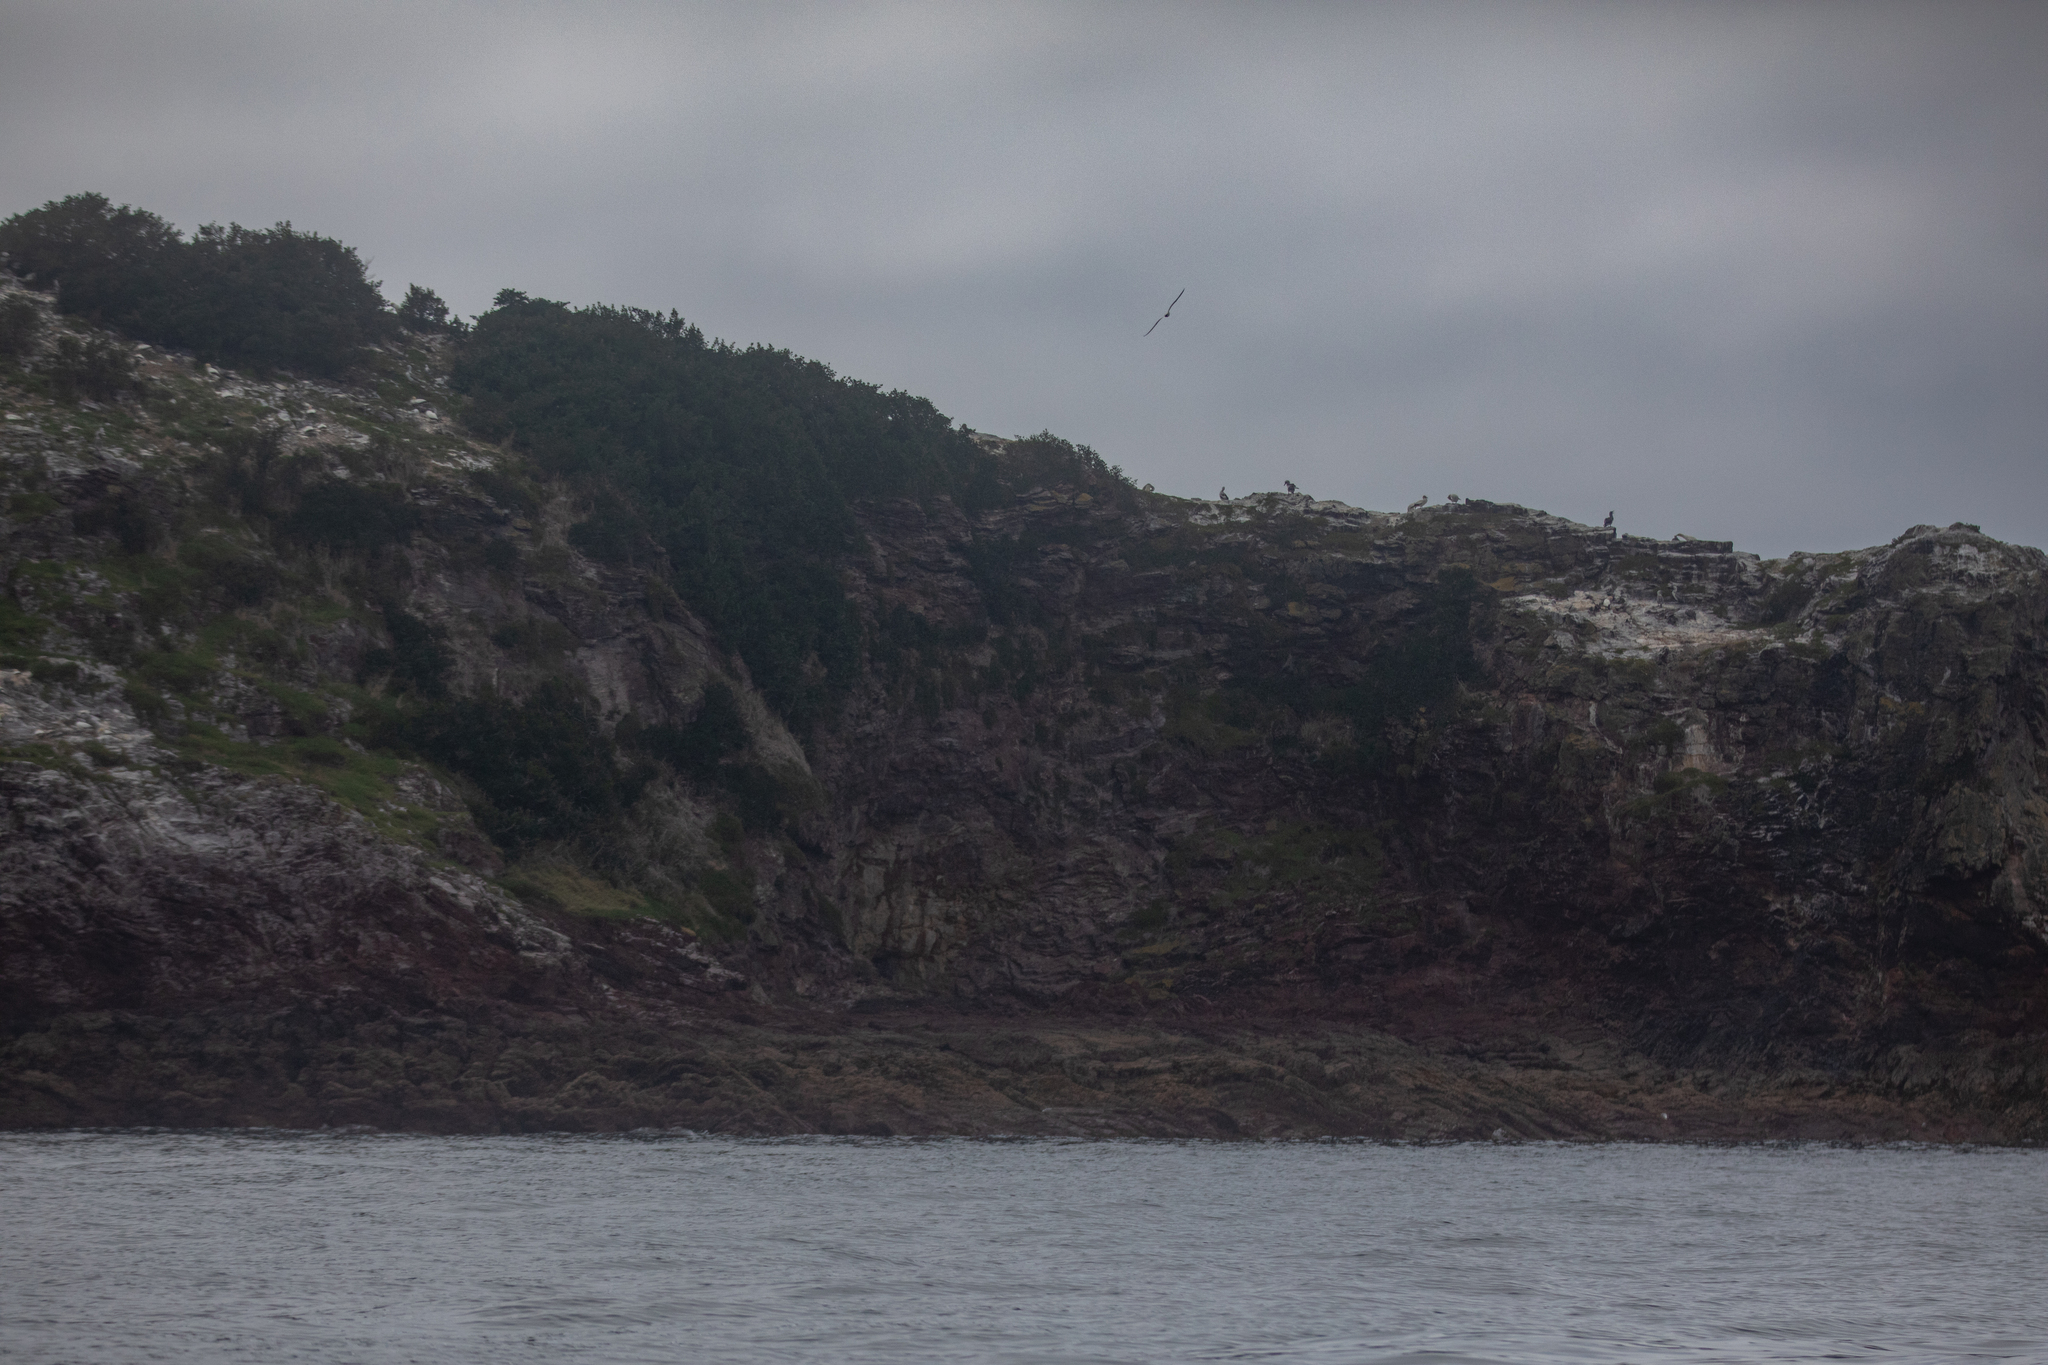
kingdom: Animalia
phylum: Chordata
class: Aves
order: Suliformes
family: Sulidae
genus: Morus
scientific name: Morus serrator
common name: Australasian gannet
